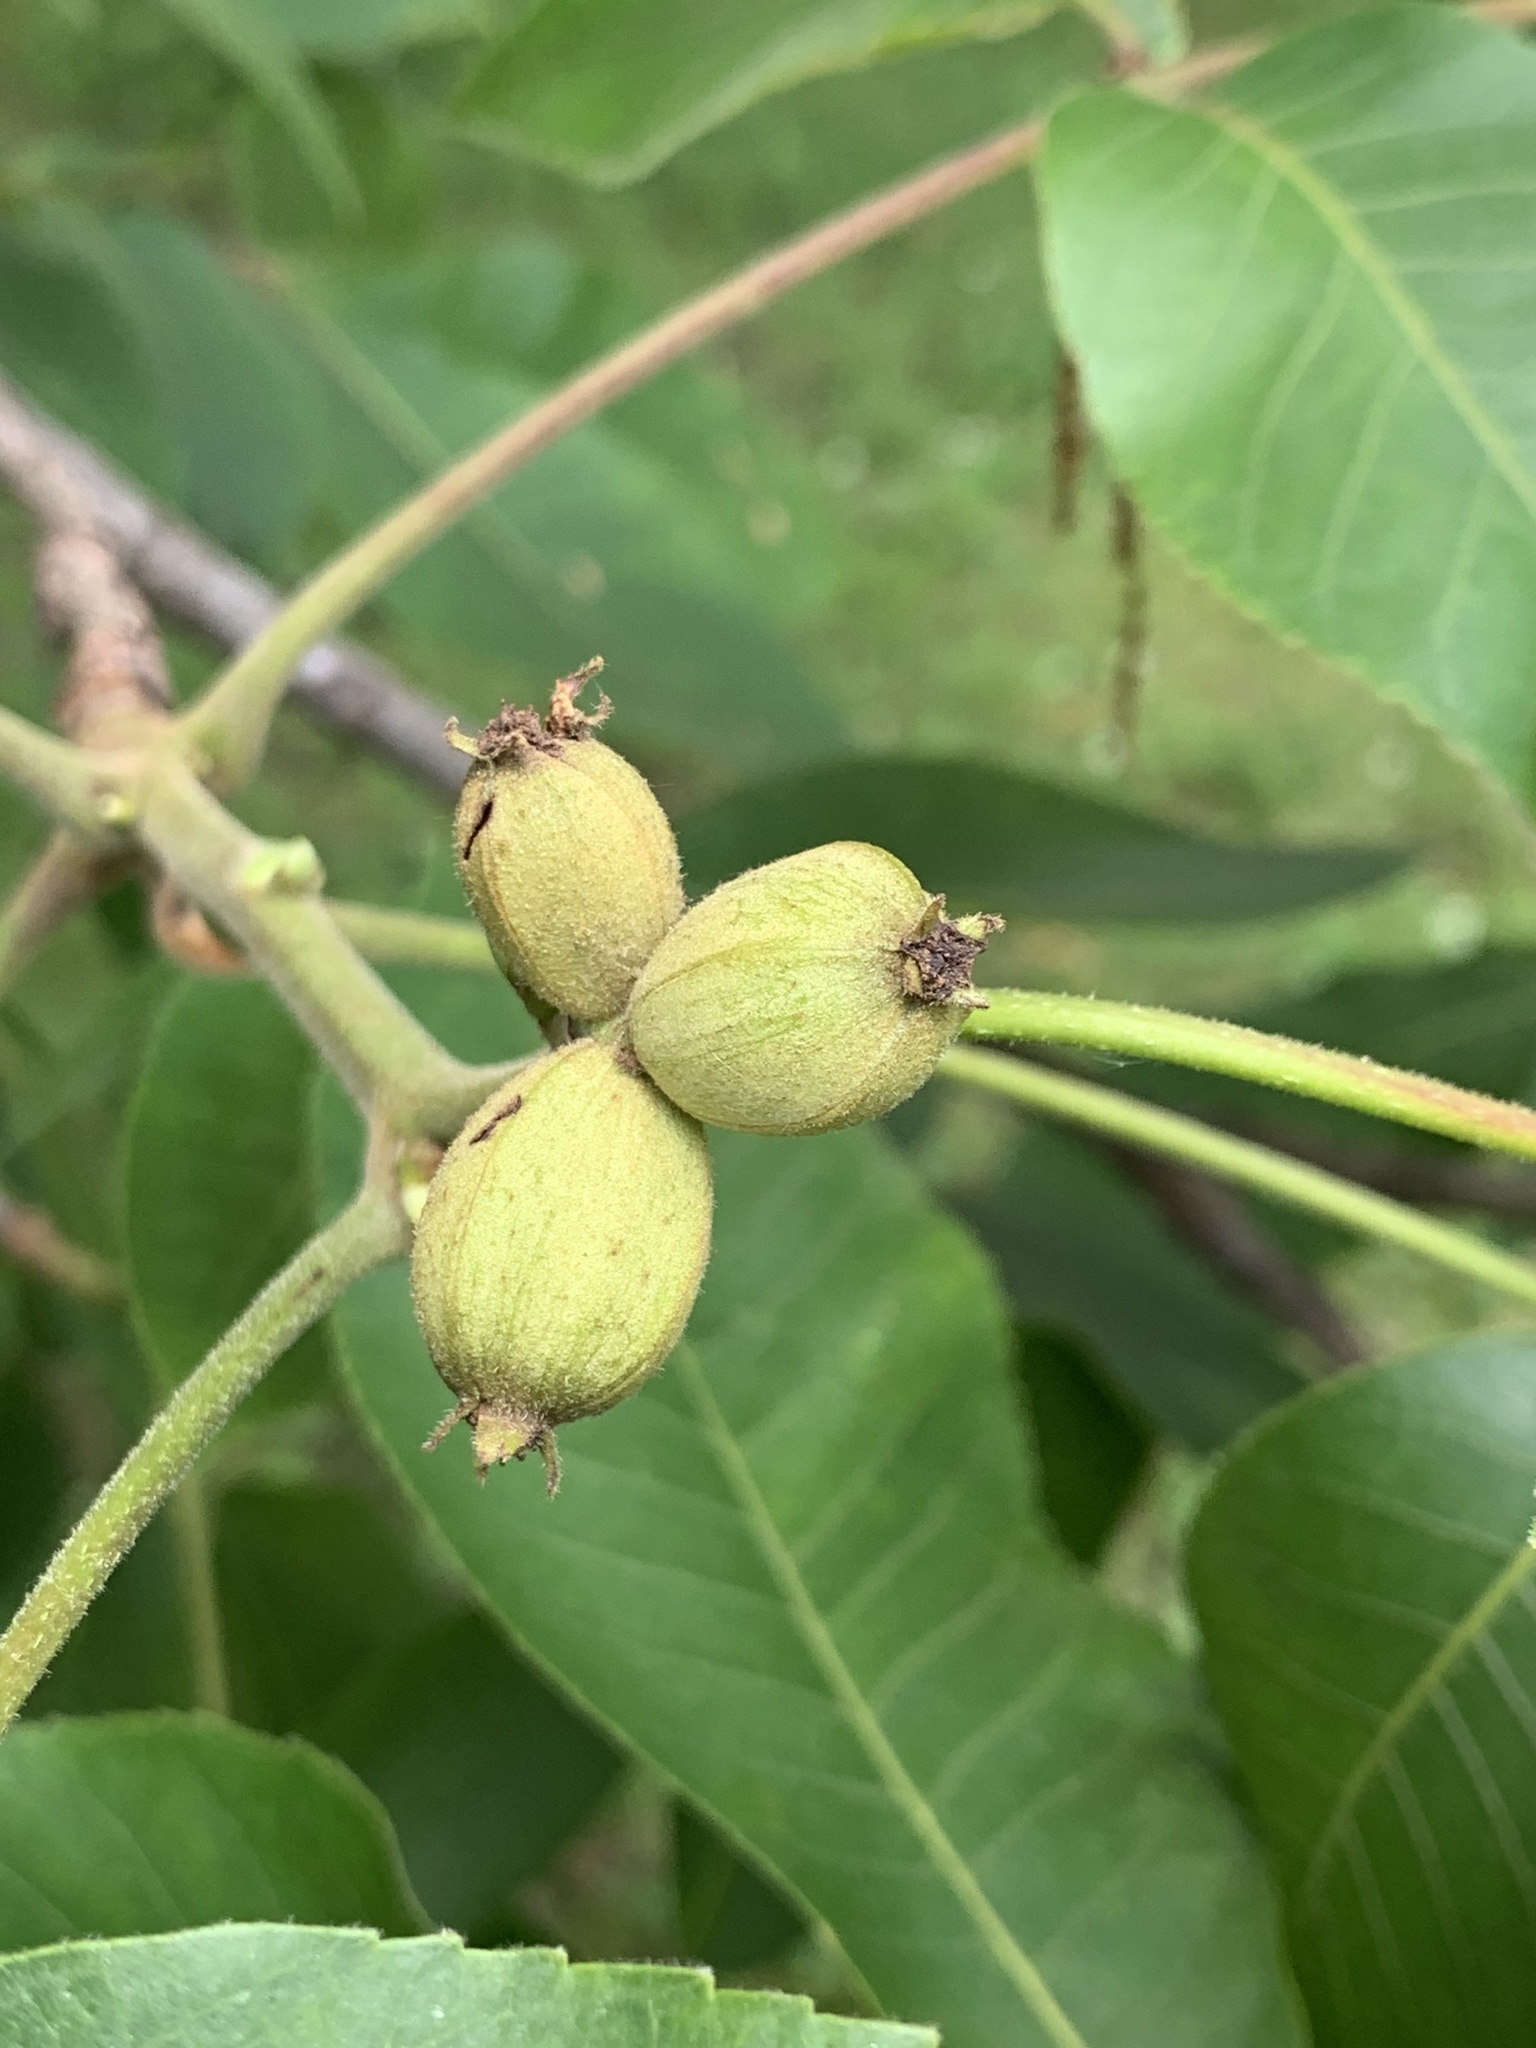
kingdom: Plantae
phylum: Tracheophyta
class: Magnoliopsida
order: Fagales
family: Juglandaceae
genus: Carya
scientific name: Carya ovata
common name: Shagbark hickory
